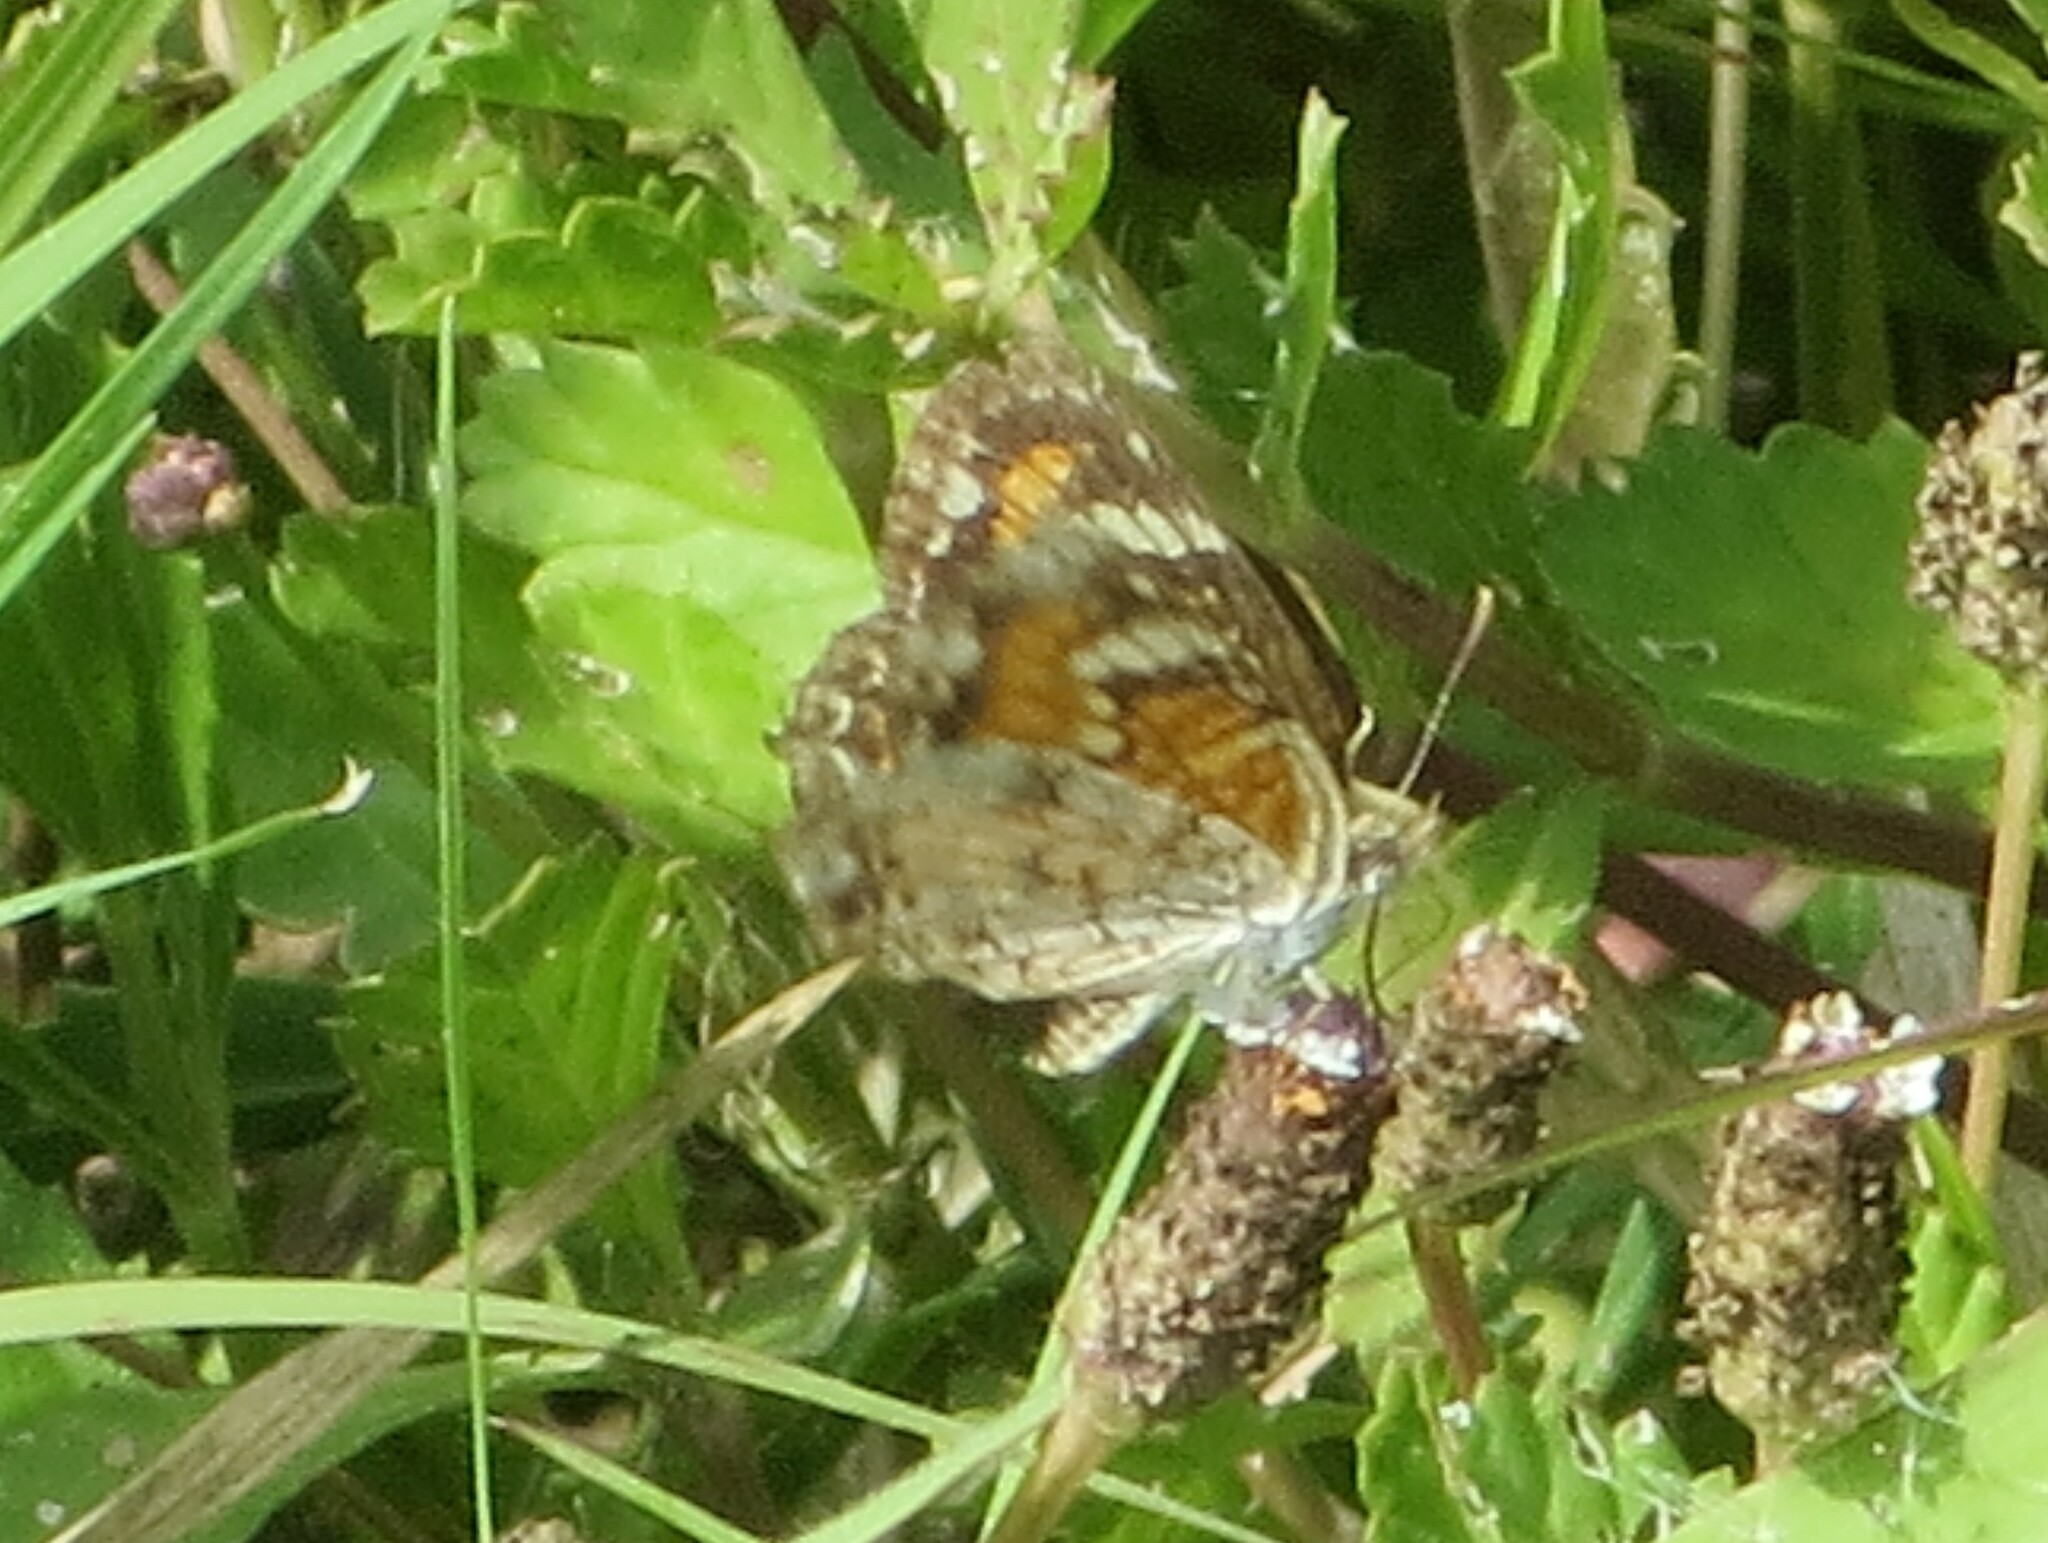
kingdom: Animalia
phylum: Arthropoda
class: Insecta
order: Lepidoptera
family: Nymphalidae
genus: Phyciodes
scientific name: Phyciodes phaon
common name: Phaon crescent
